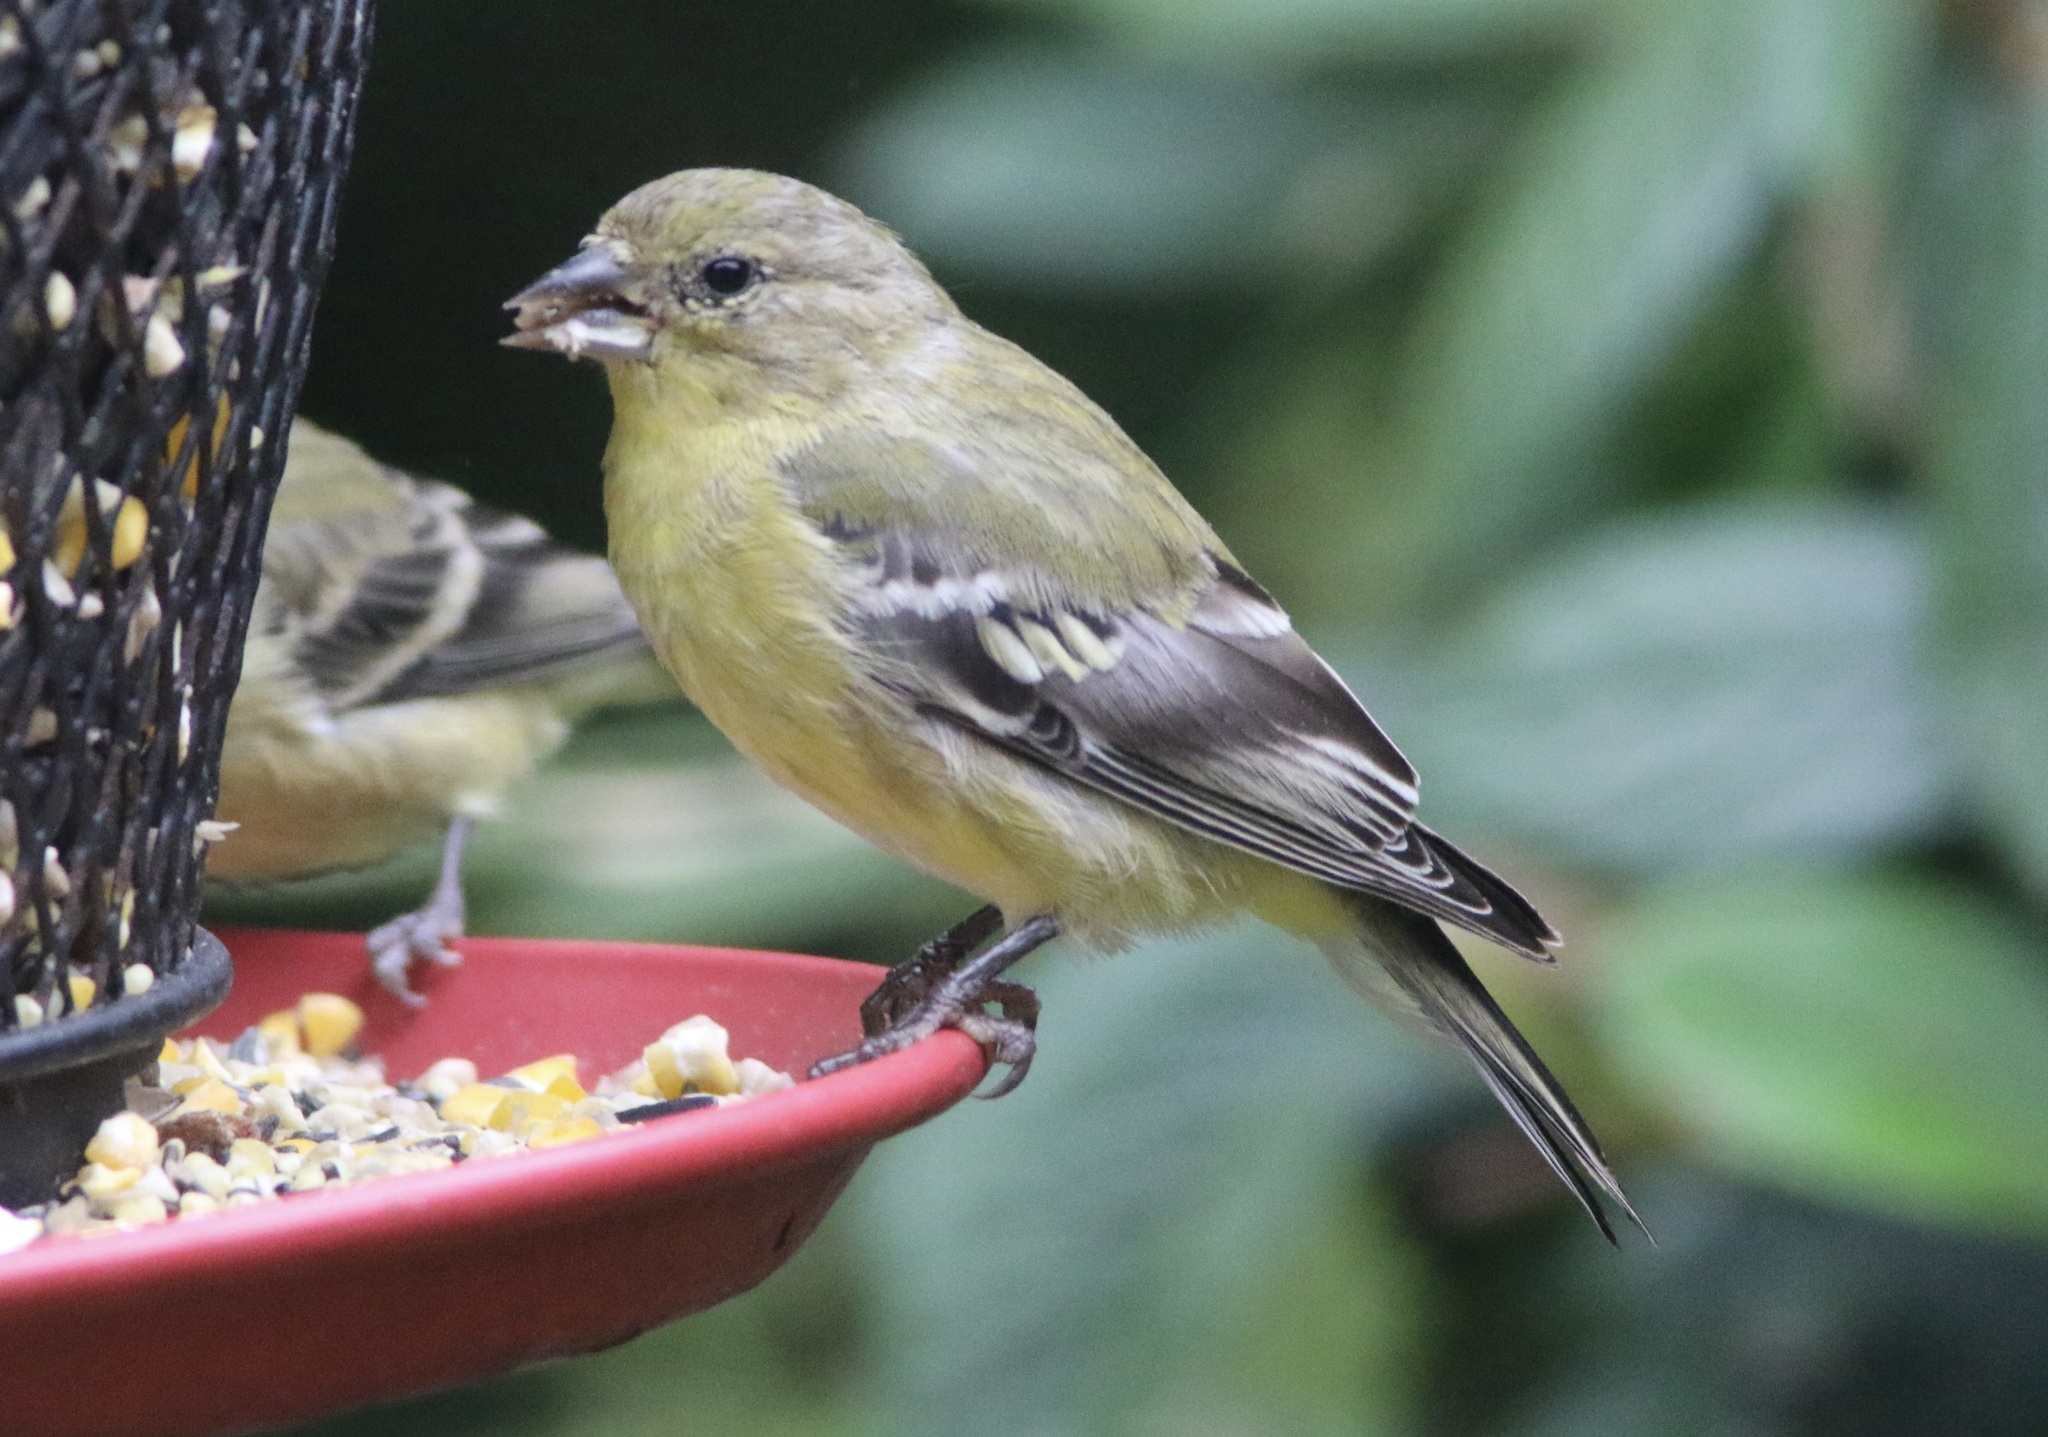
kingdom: Animalia
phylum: Chordata
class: Aves
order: Passeriformes
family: Fringillidae
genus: Spinus
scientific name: Spinus psaltria
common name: Lesser goldfinch
